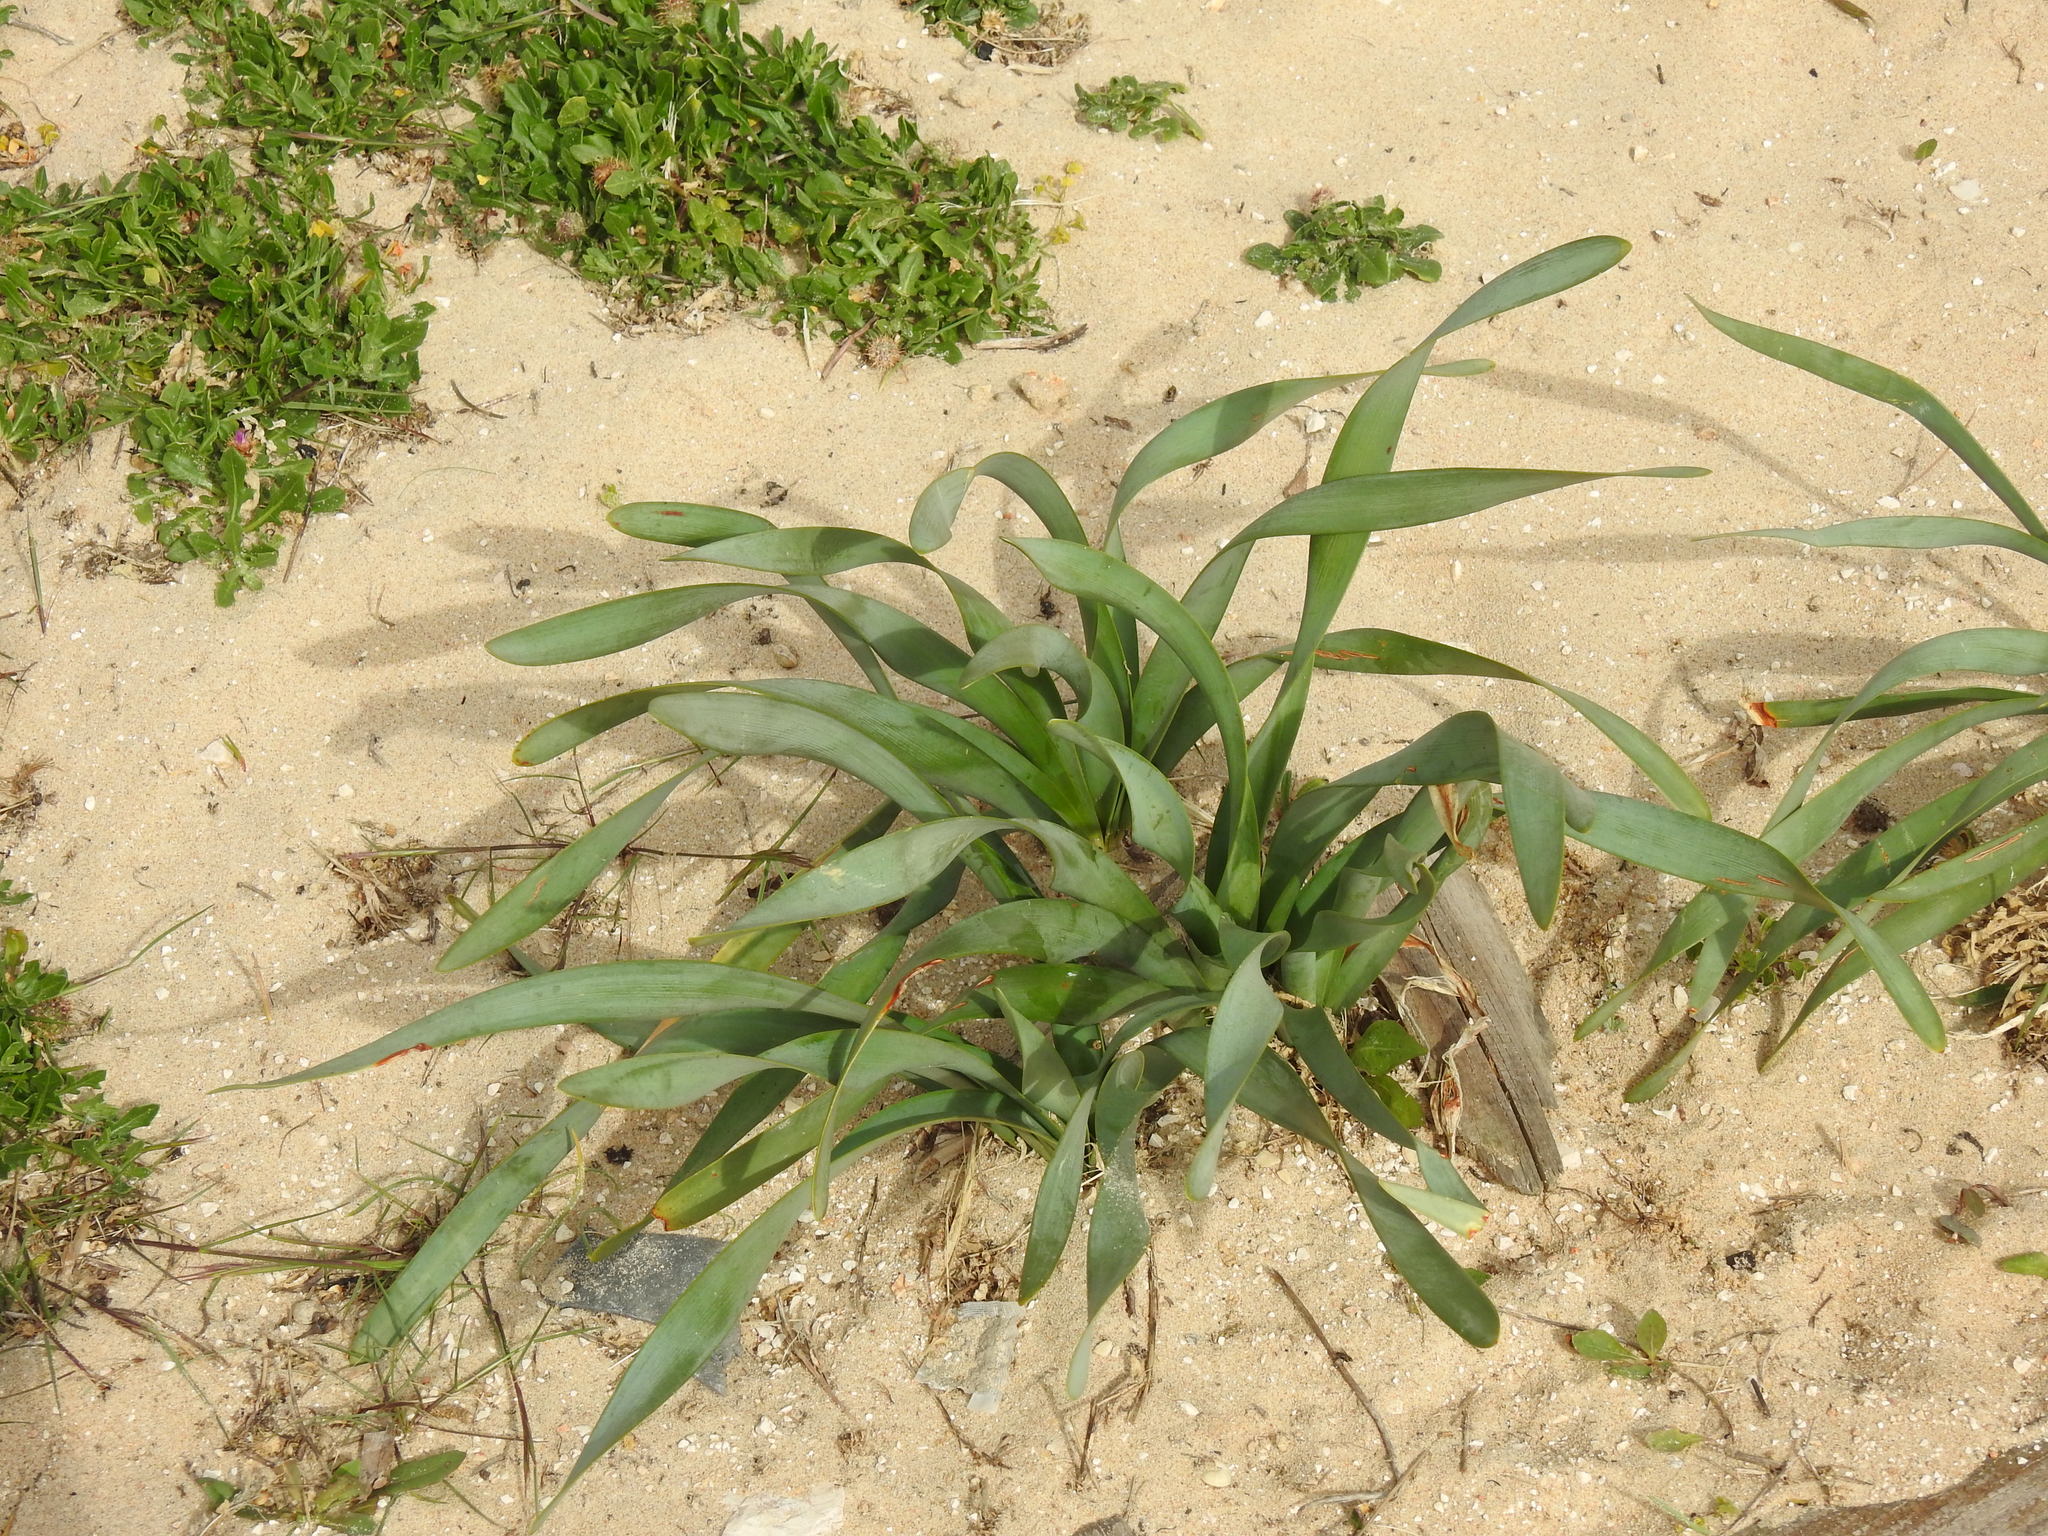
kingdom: Plantae
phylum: Tracheophyta
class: Liliopsida
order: Asparagales
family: Amaryllidaceae
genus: Pancratium
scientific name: Pancratium maritimum
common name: Sea-daffodil
